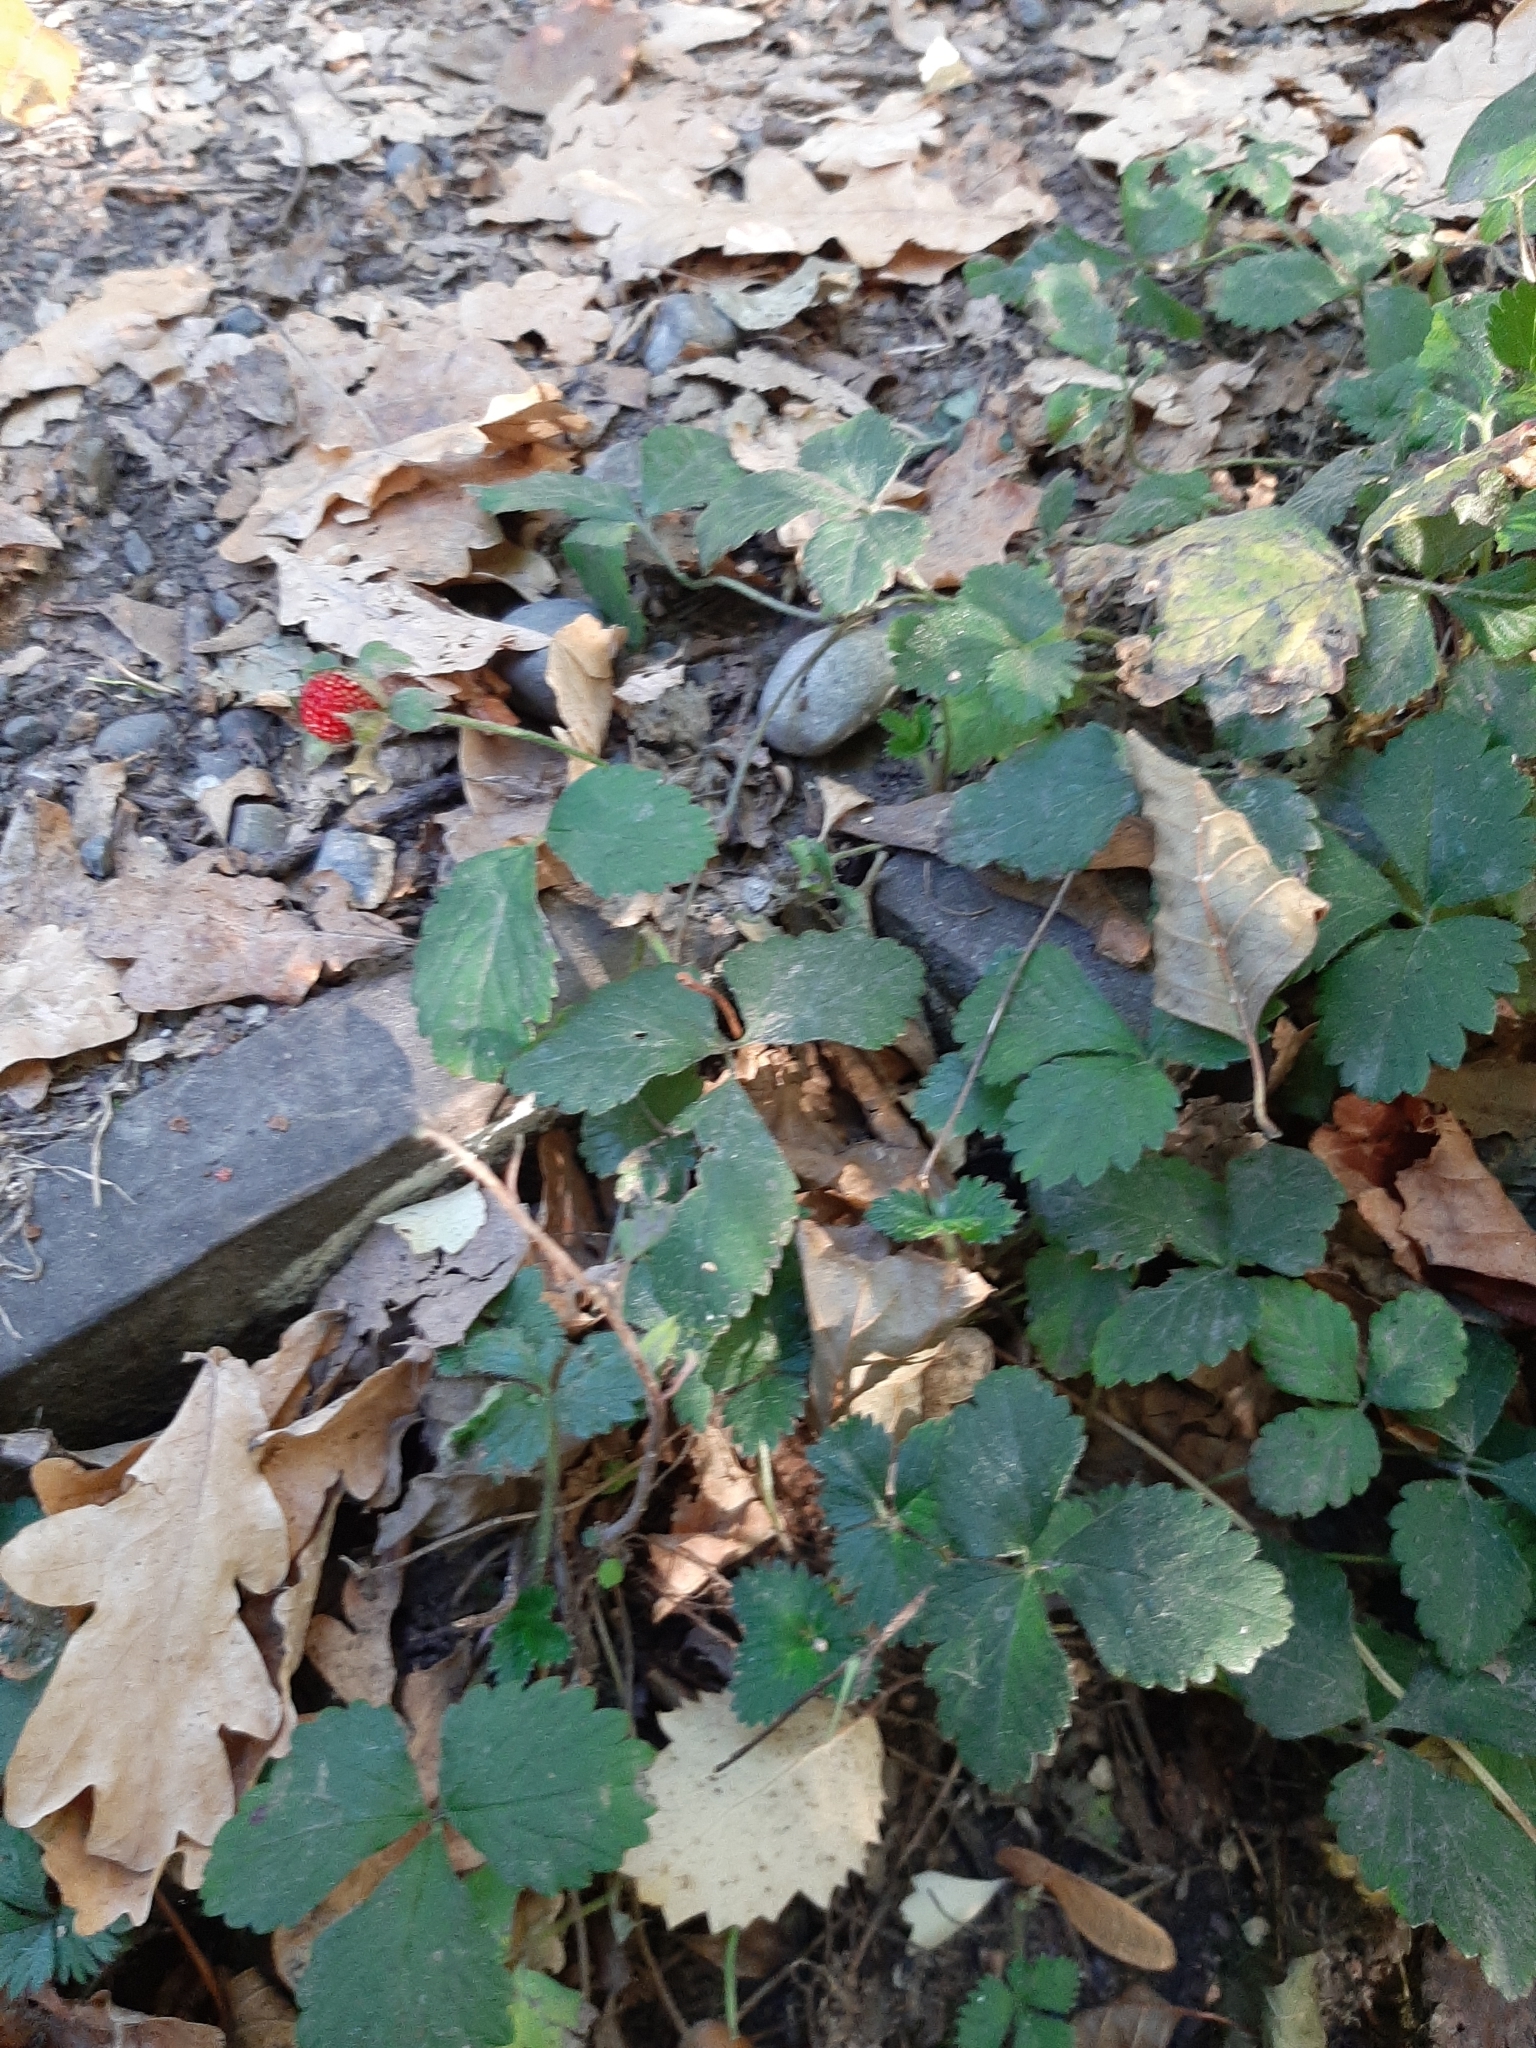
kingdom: Plantae
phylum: Tracheophyta
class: Magnoliopsida
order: Rosales
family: Rosaceae
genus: Potentilla
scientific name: Potentilla indica
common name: Yellow-flowered strawberry
